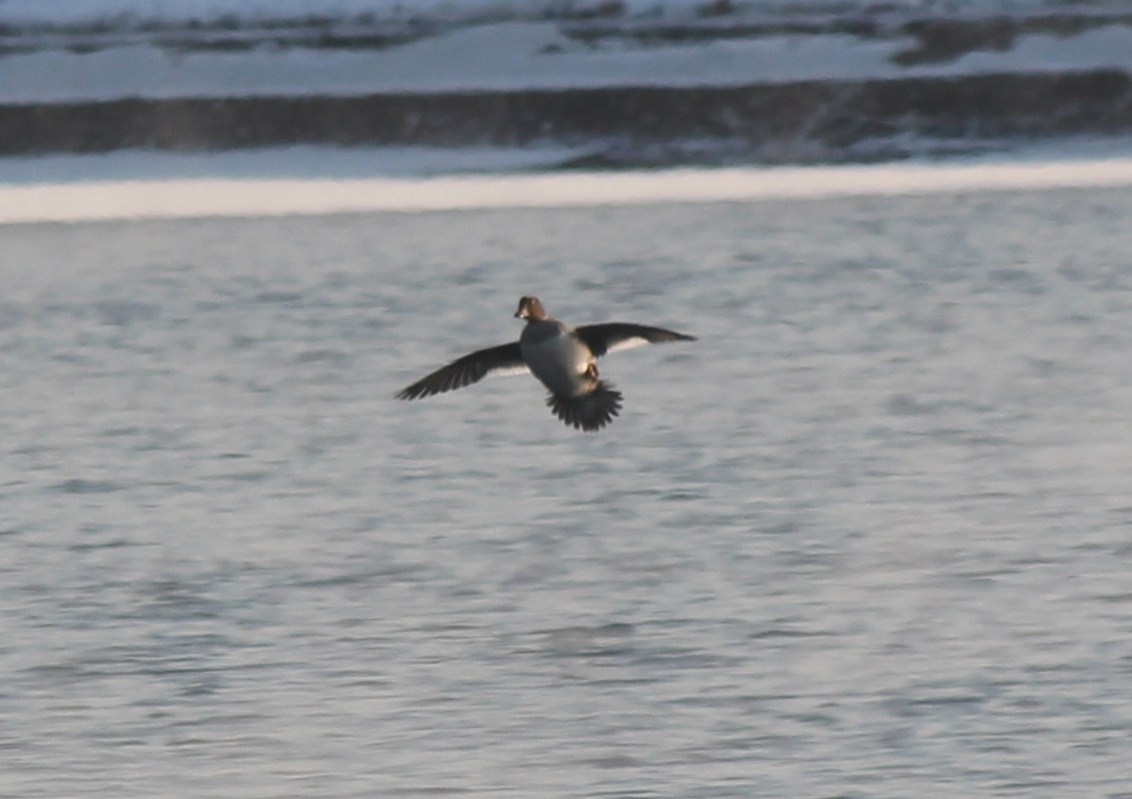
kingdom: Animalia
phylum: Chordata
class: Aves
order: Anseriformes
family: Anatidae
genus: Bucephala
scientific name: Bucephala clangula
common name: Common goldeneye
